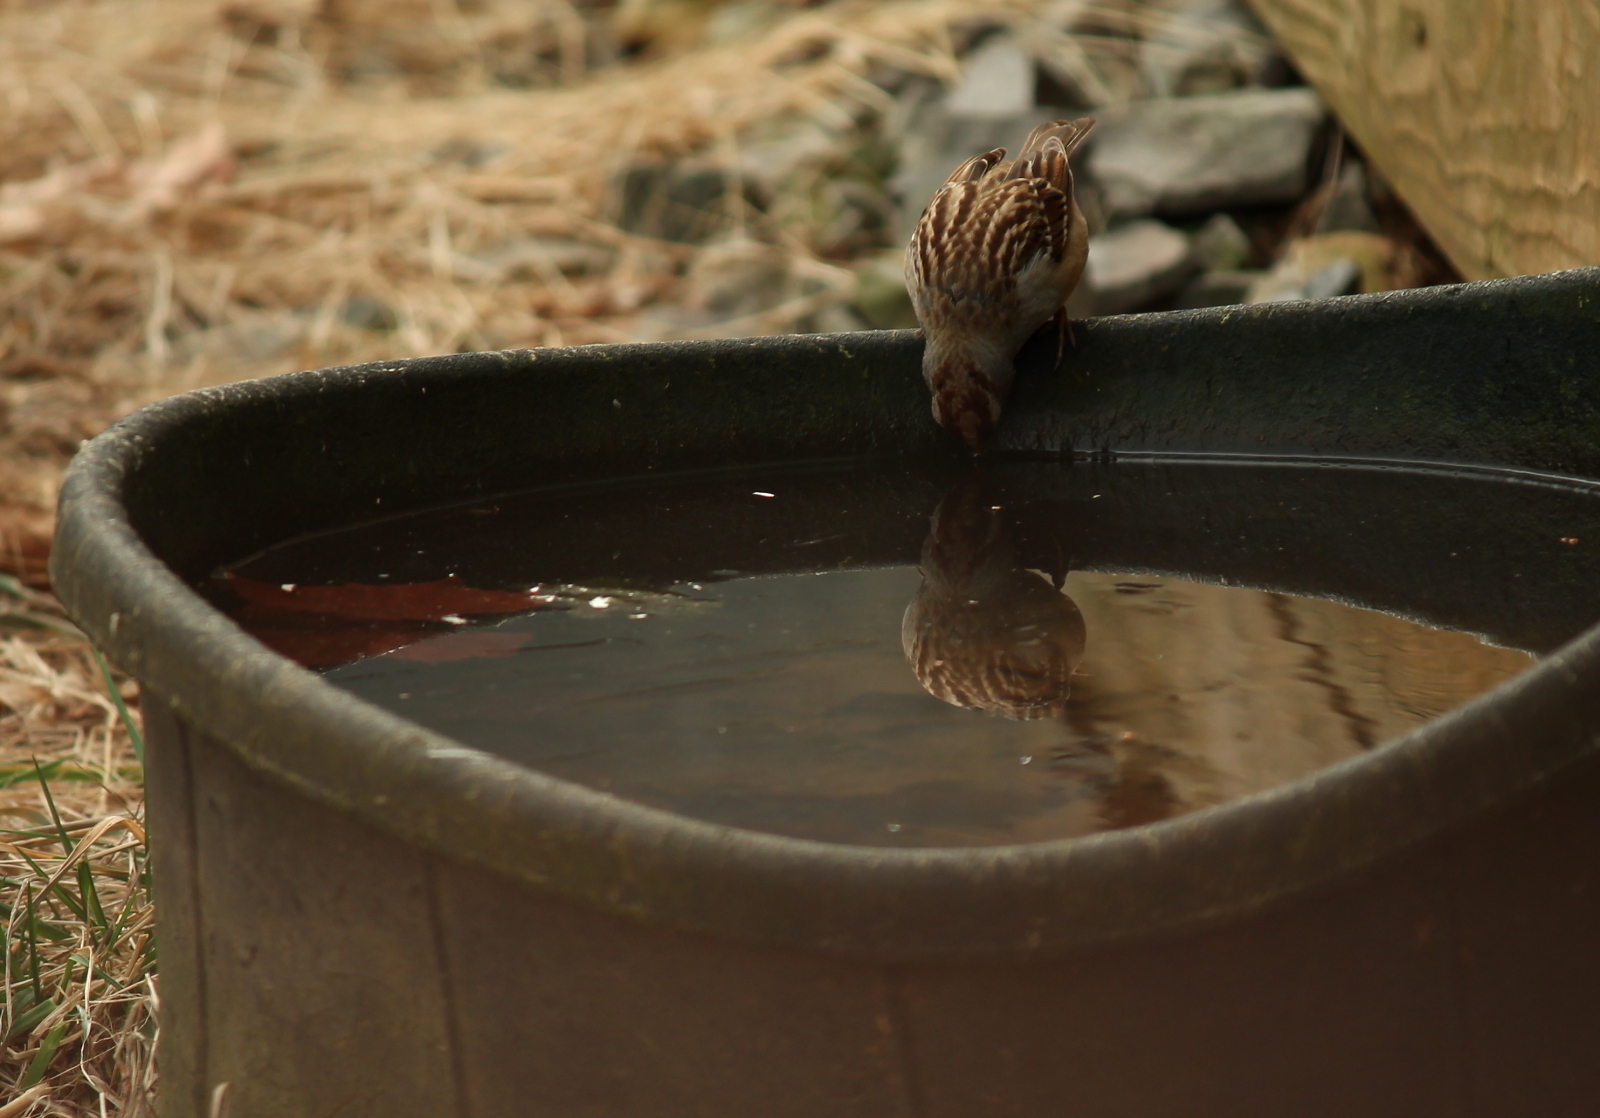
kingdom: Animalia
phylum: Chordata
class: Aves
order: Passeriformes
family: Passerellidae
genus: Zonotrichia
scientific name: Zonotrichia leucophrys
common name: White-crowned sparrow
